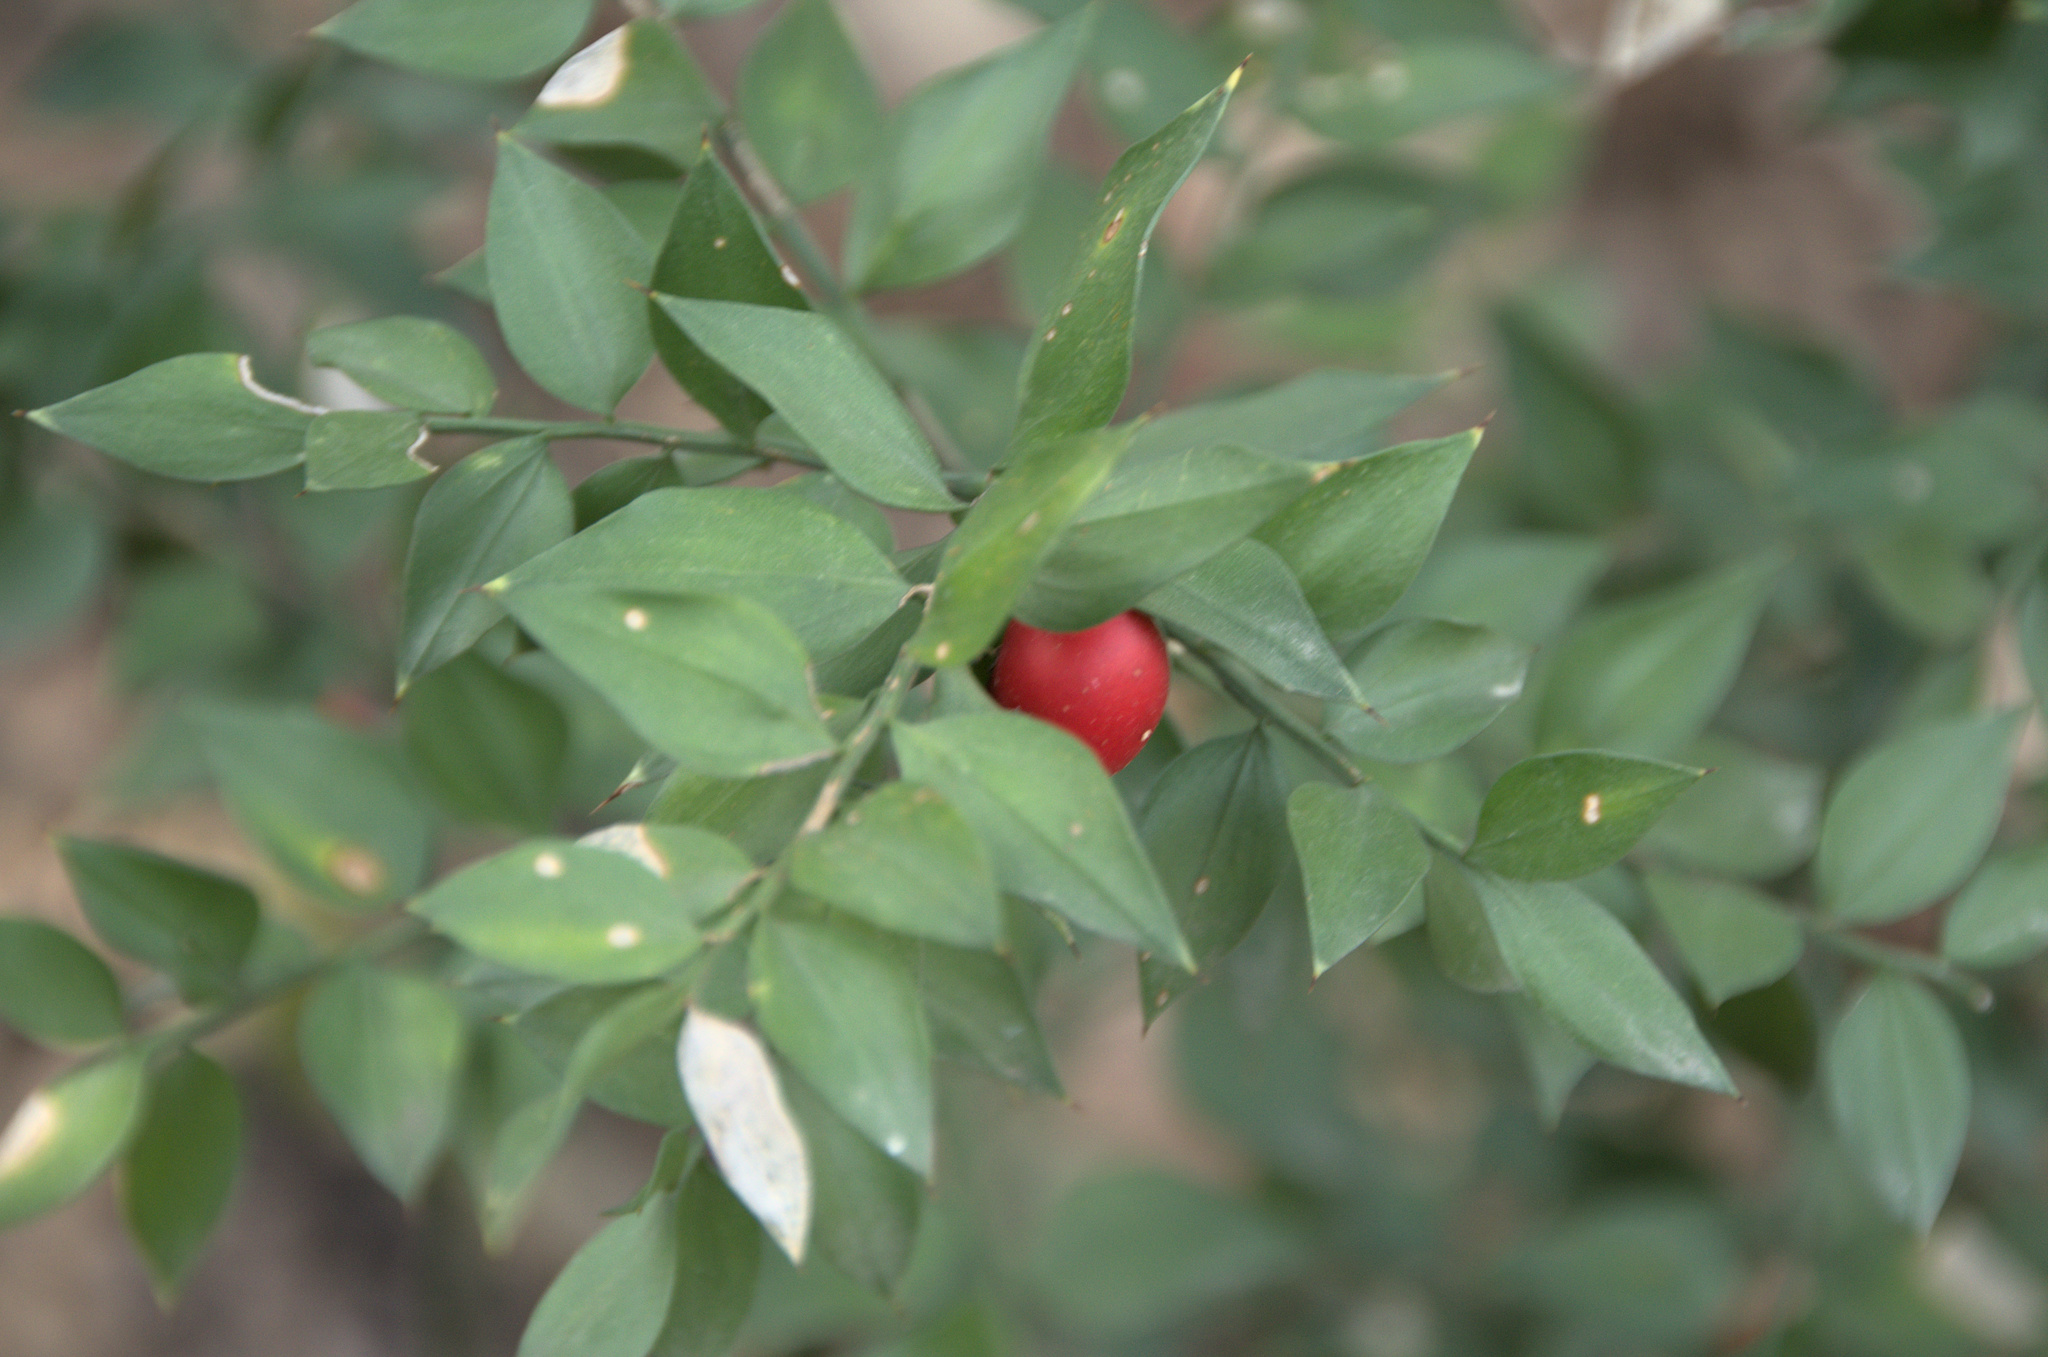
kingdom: Plantae
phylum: Tracheophyta
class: Liliopsida
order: Asparagales
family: Asparagaceae
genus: Ruscus
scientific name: Ruscus aculeatus
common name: Butcher's-broom
